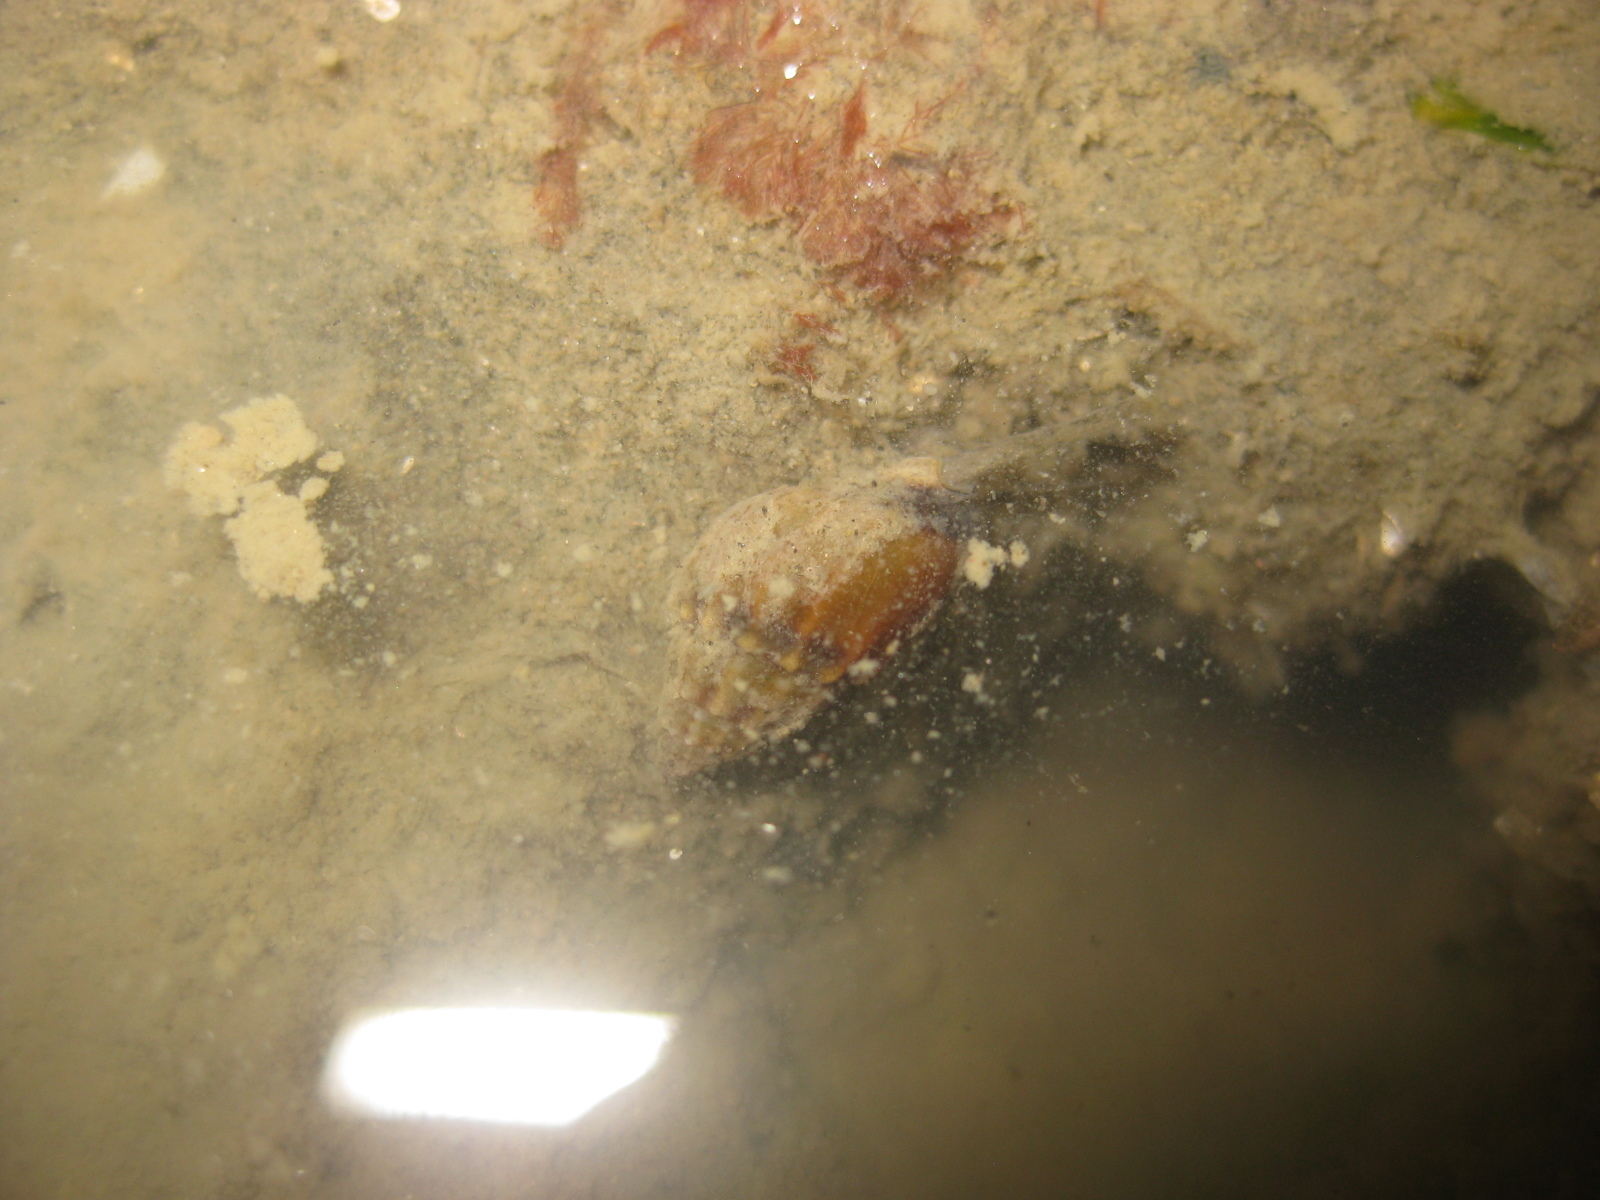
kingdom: Animalia
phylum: Mollusca
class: Gastropoda
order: Neogastropoda
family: Nassariidae
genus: Tritia
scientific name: Tritia burchardi
